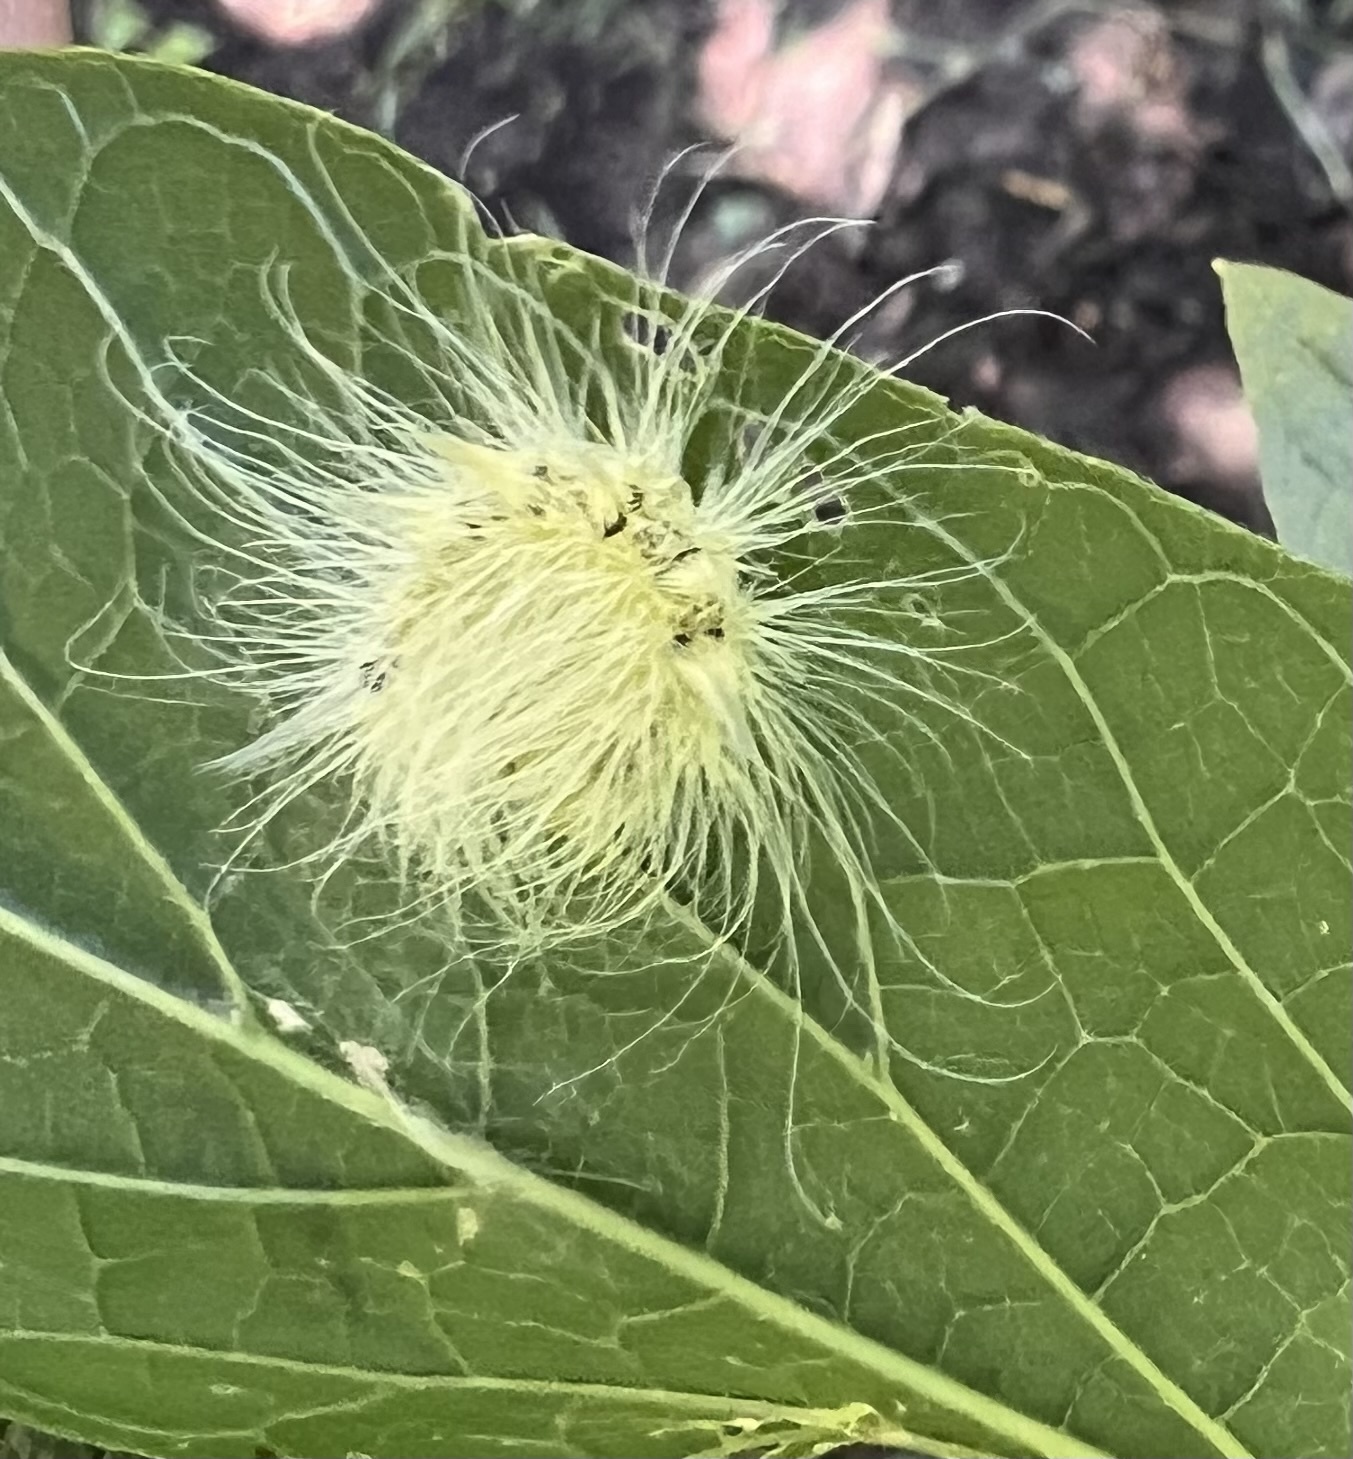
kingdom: Animalia
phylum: Arthropoda
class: Insecta
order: Lepidoptera
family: Noctuidae
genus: Acronicta
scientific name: Acronicta rubricoma
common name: Hackberry dagger
